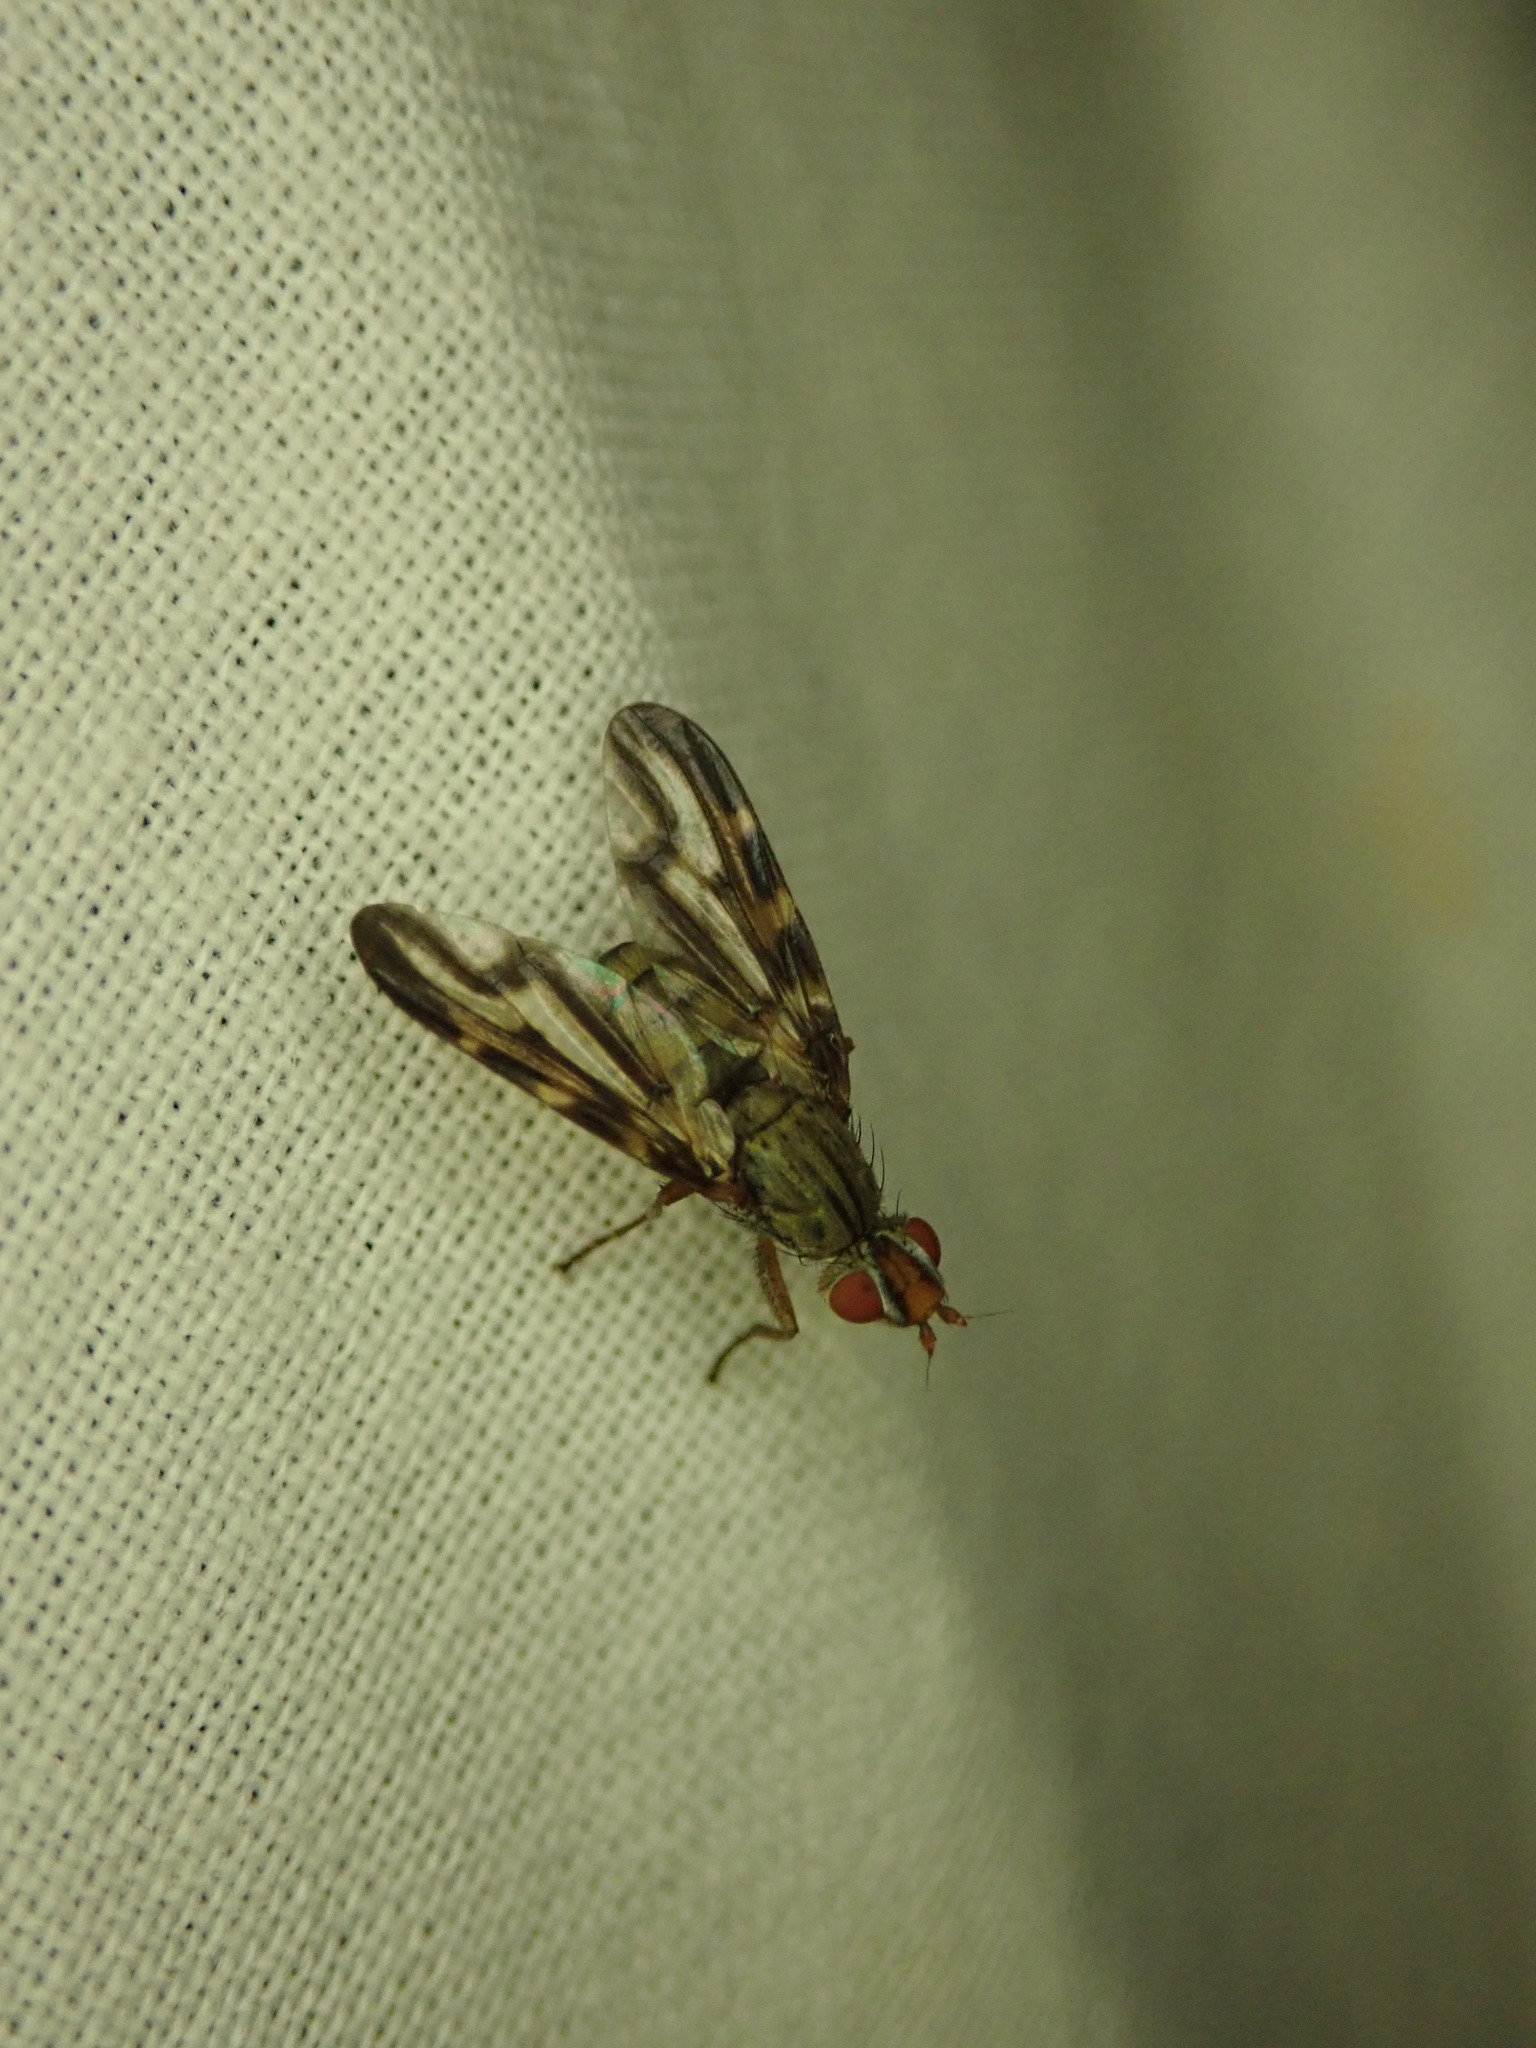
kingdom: Animalia
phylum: Arthropoda
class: Insecta
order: Diptera
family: Ulidiidae
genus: Otites
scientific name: Otites lamed
